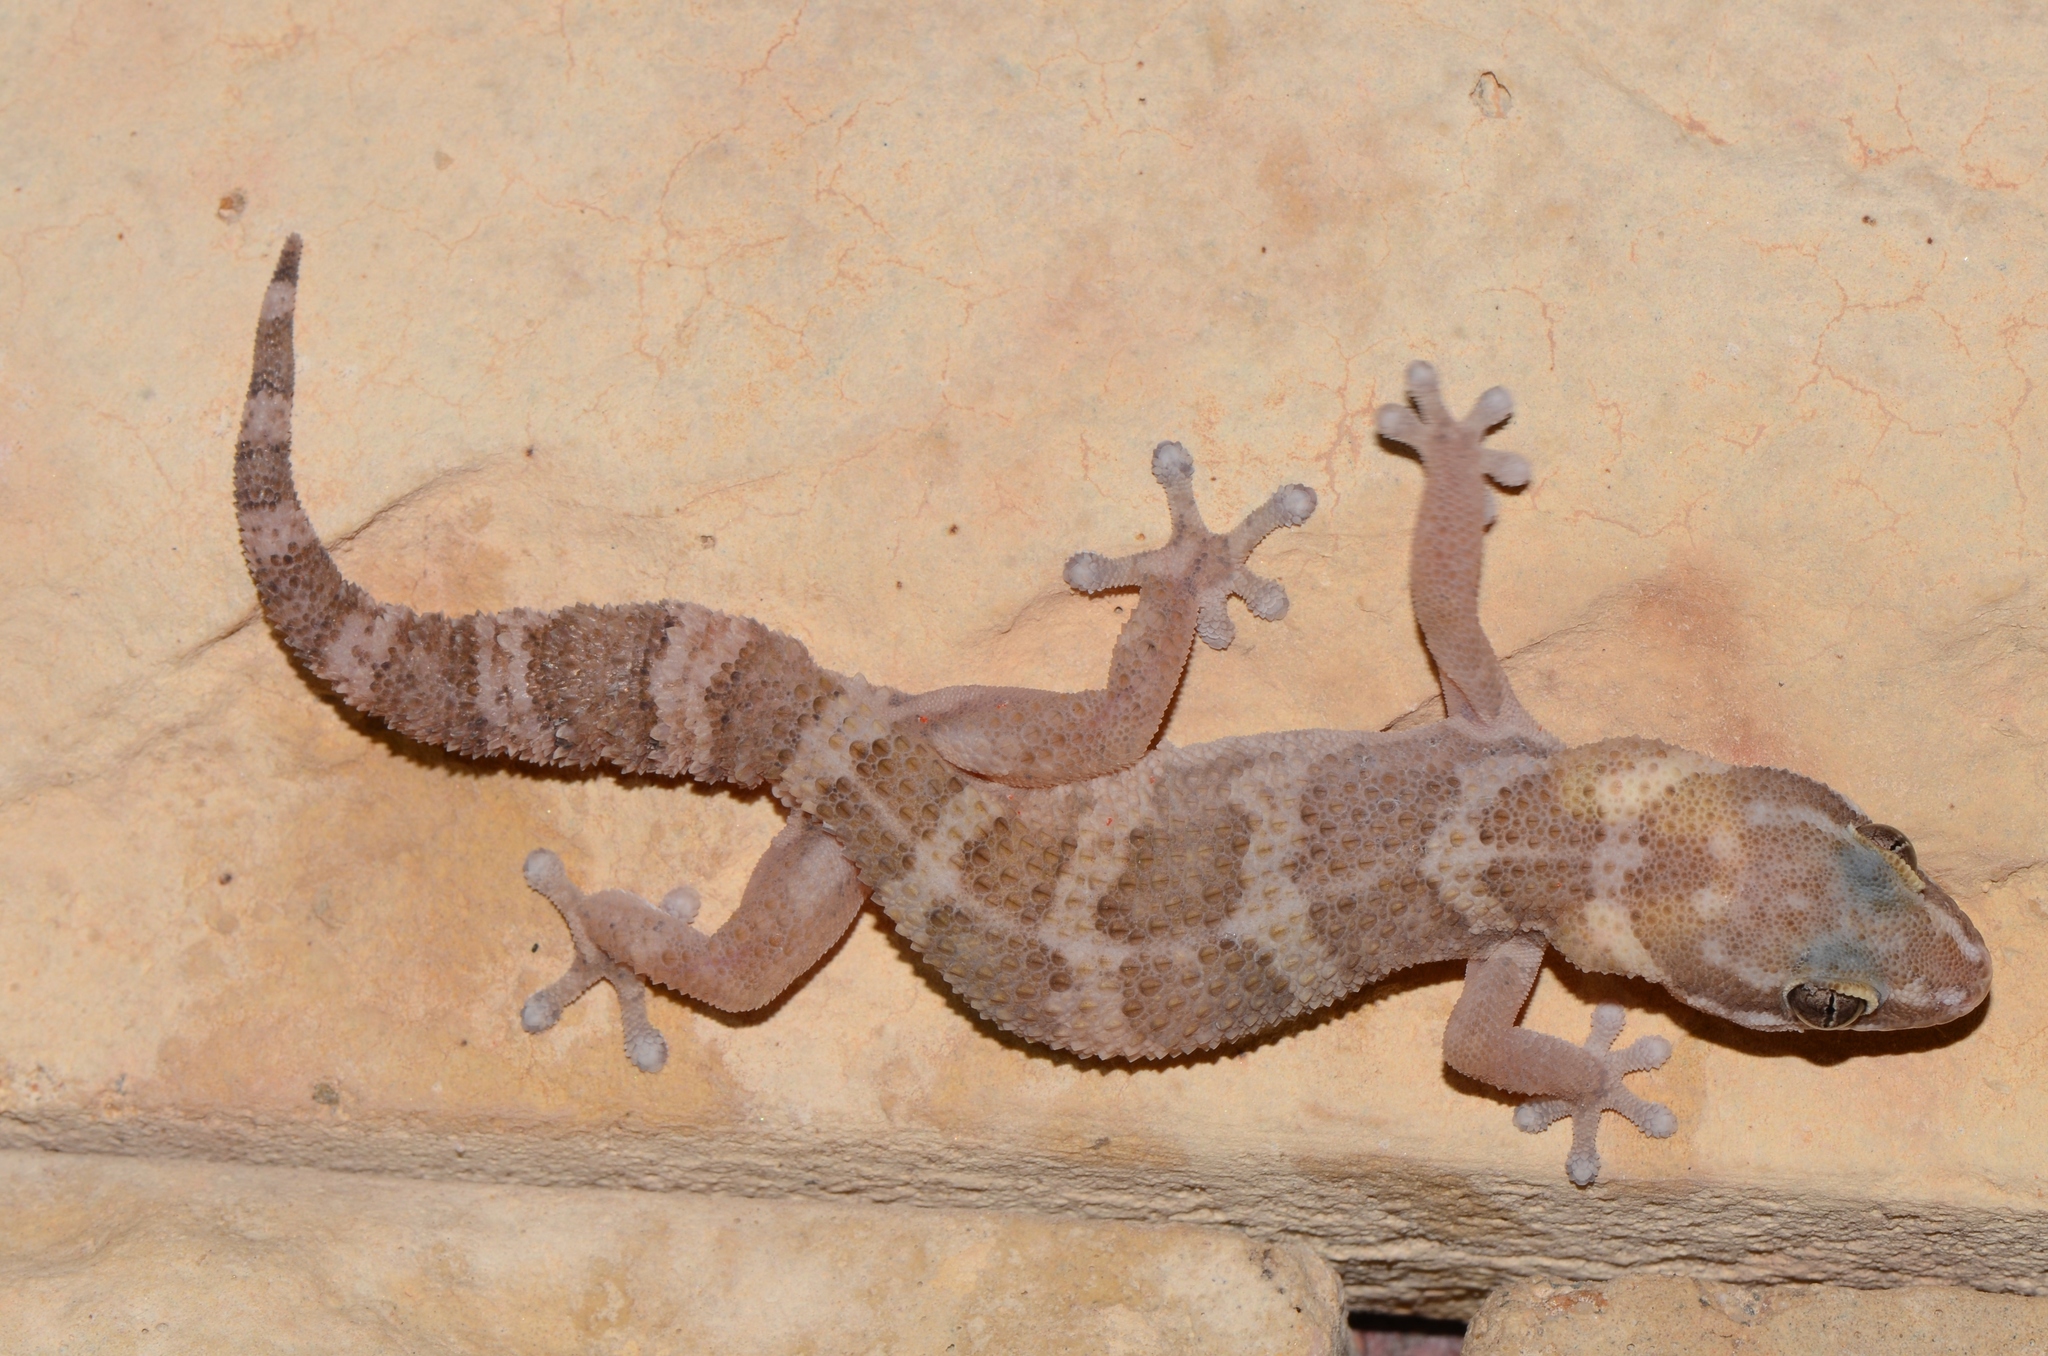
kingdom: Animalia
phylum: Chordata
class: Squamata
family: Gekkonidae
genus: Pachydactylus
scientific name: Pachydactylus formosus
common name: Southern rough gecko
